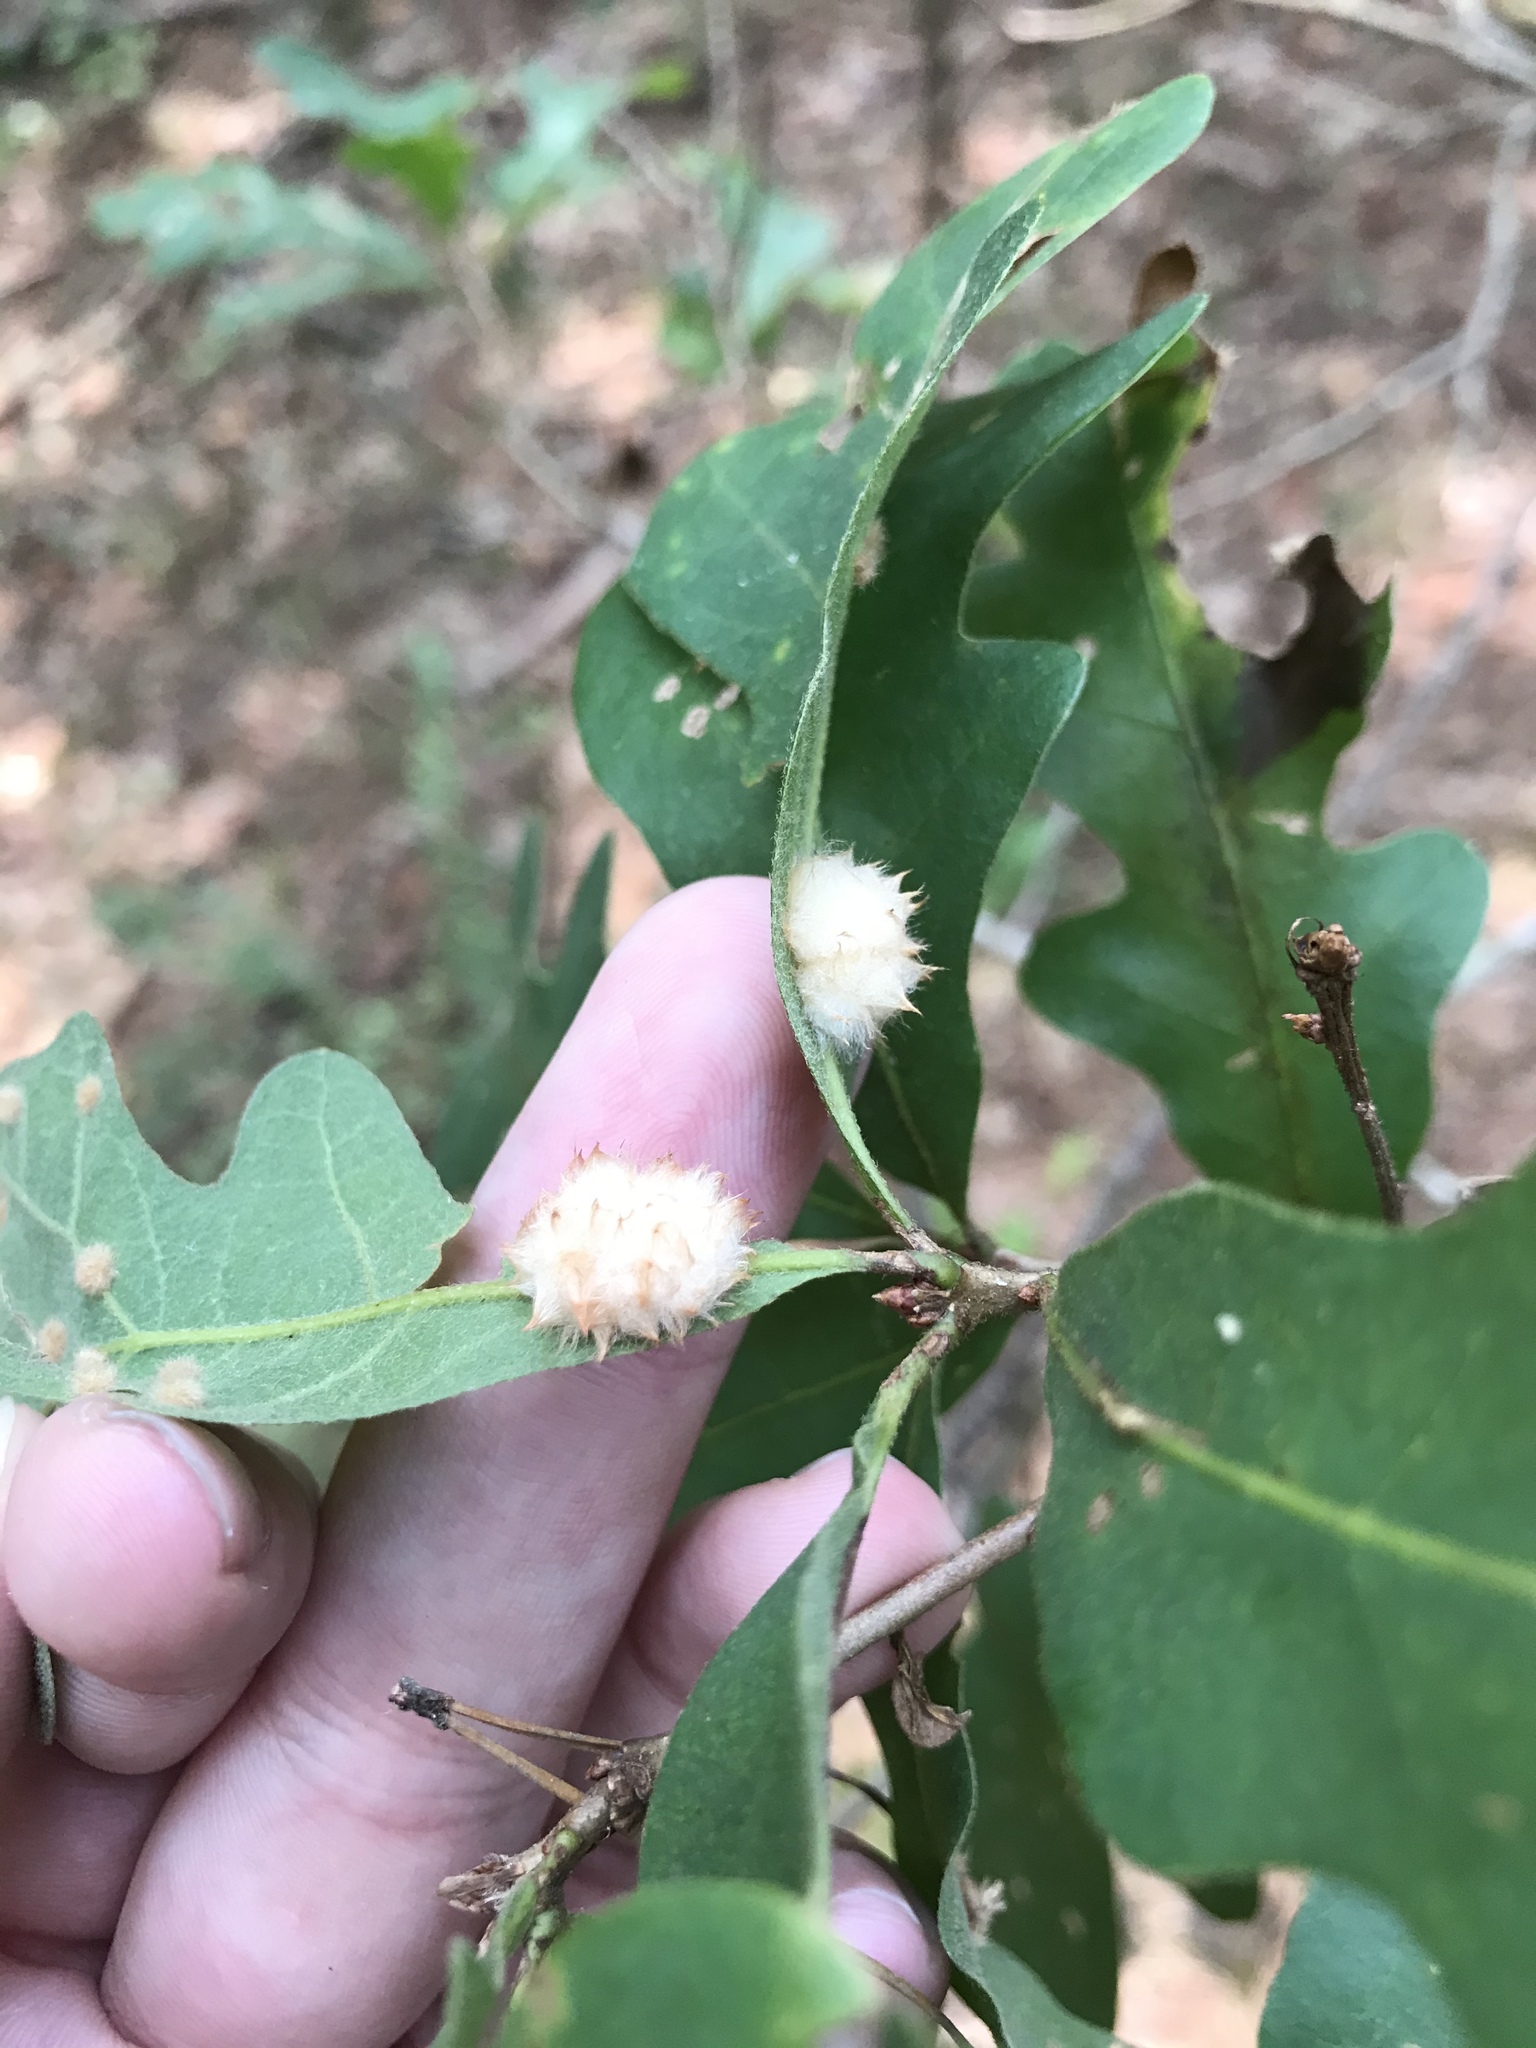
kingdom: Animalia
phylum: Arthropoda
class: Insecta
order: Hymenoptera
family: Cynipidae
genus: Andricus
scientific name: Andricus Druon pattoni
